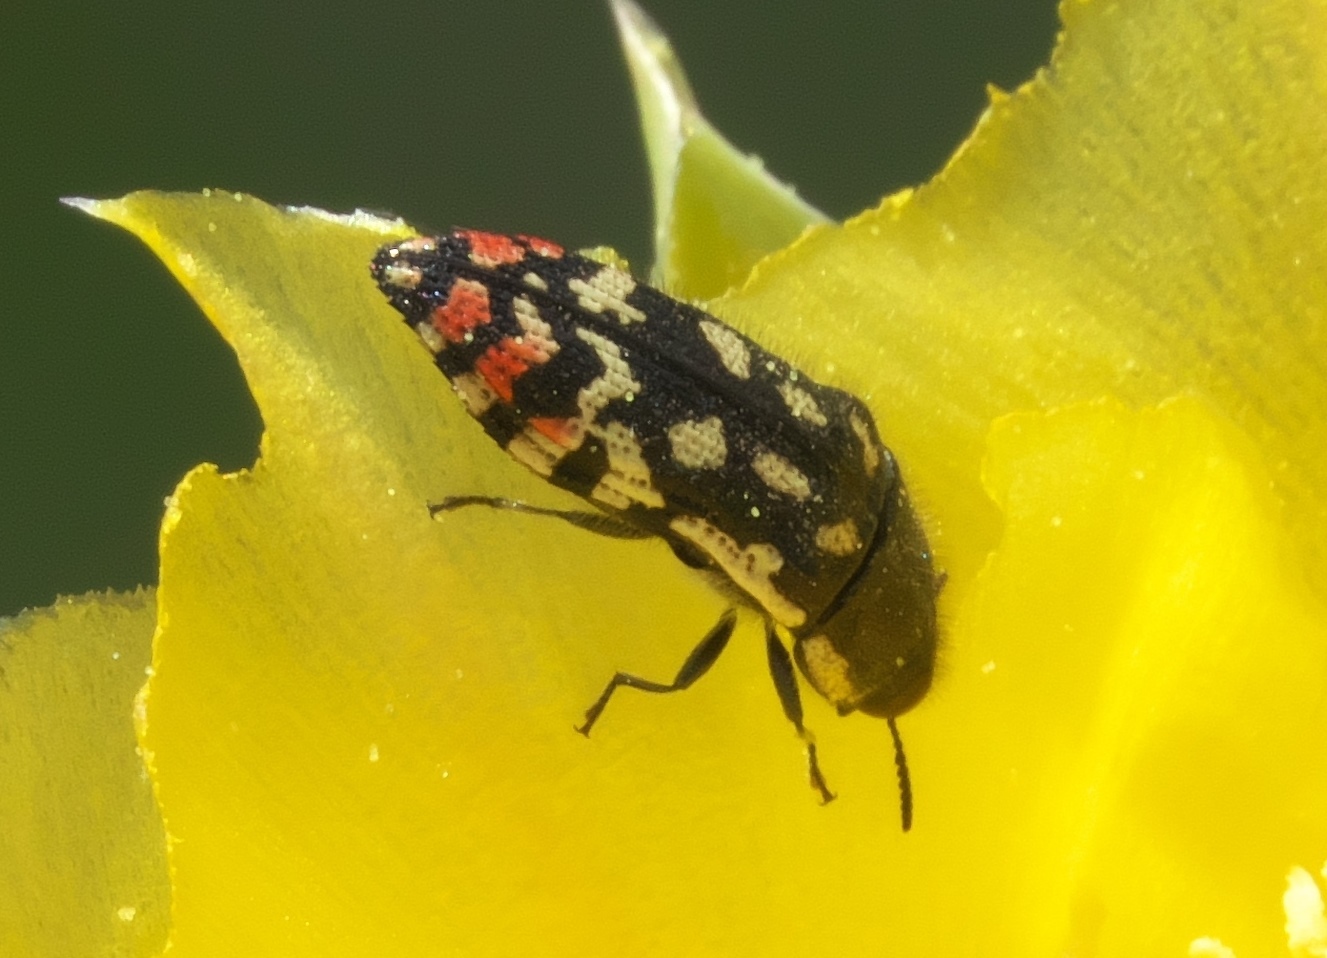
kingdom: Animalia
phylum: Arthropoda
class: Insecta
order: Coleoptera
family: Buprestidae
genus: Acmaeodera
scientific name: Acmaeodera paradisjuncta
